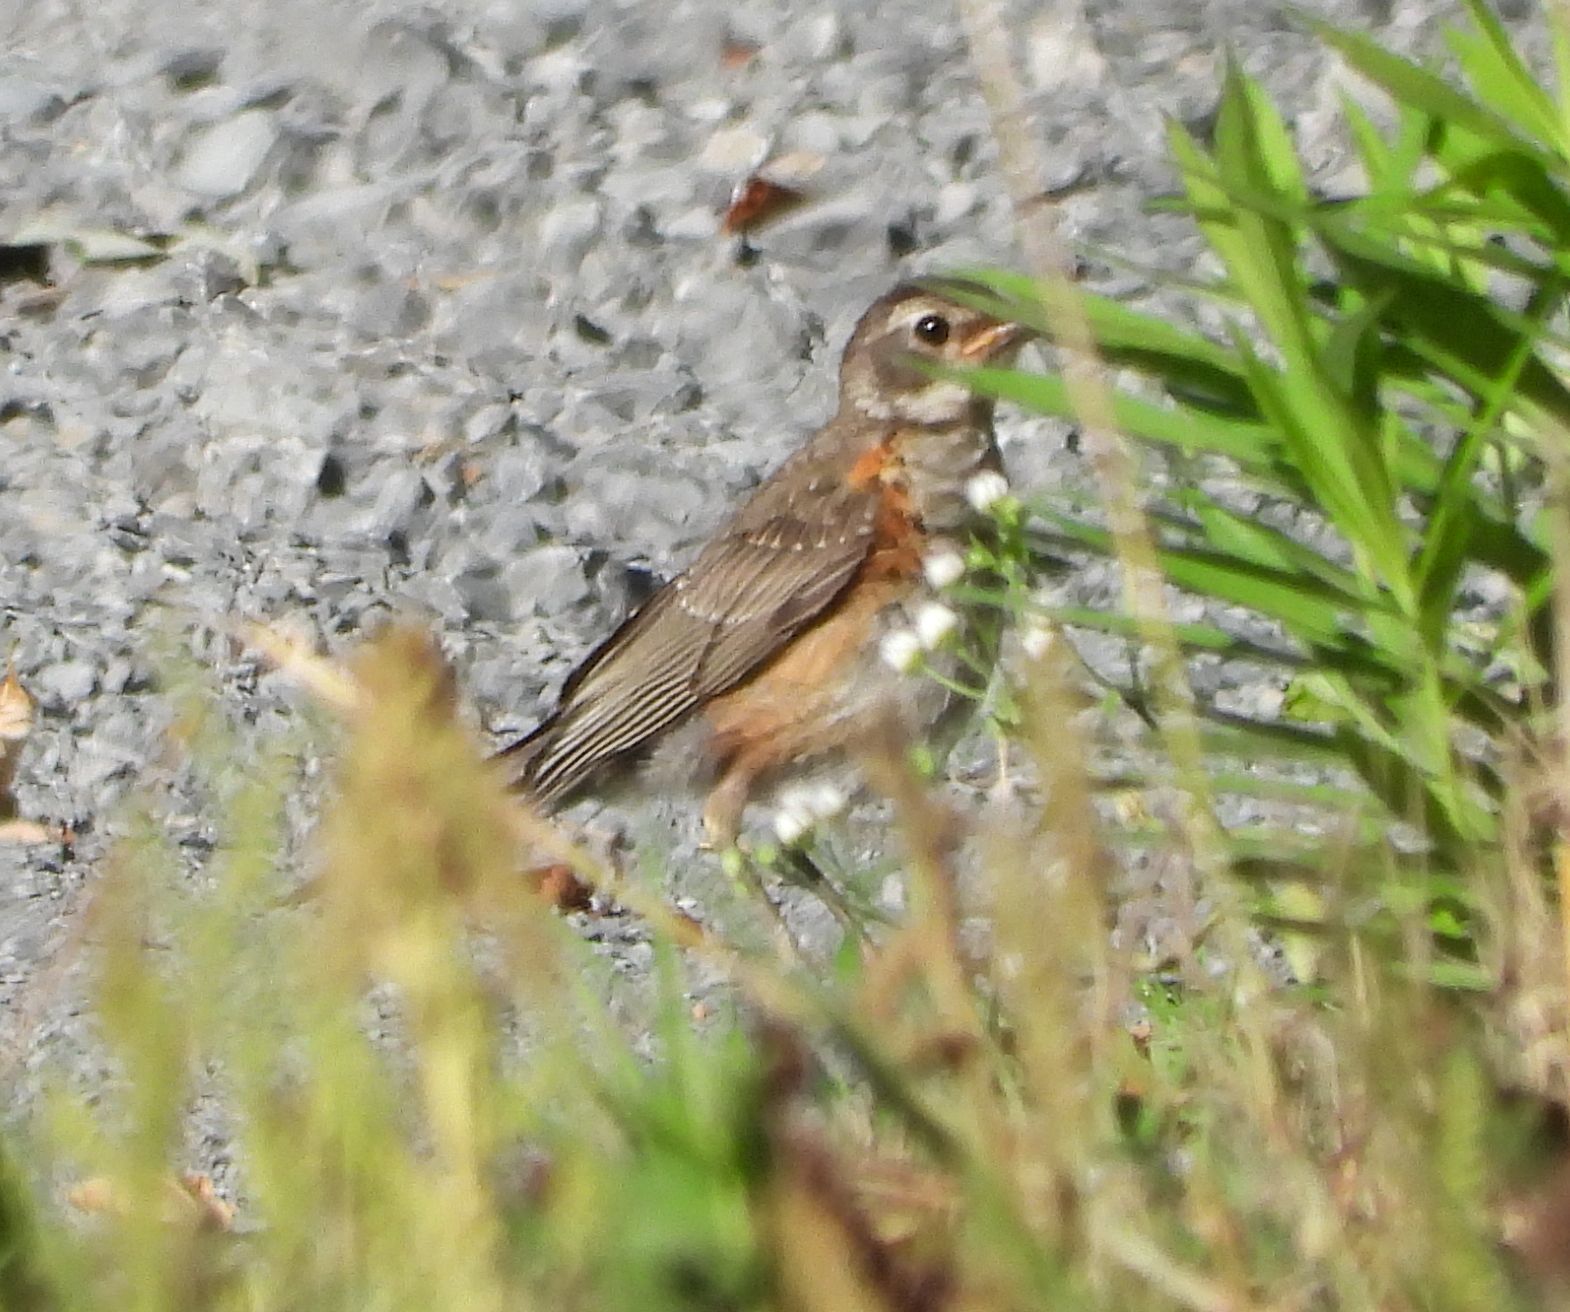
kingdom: Animalia
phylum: Chordata
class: Aves
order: Passeriformes
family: Turdidae
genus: Turdus
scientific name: Turdus migratorius
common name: American robin
